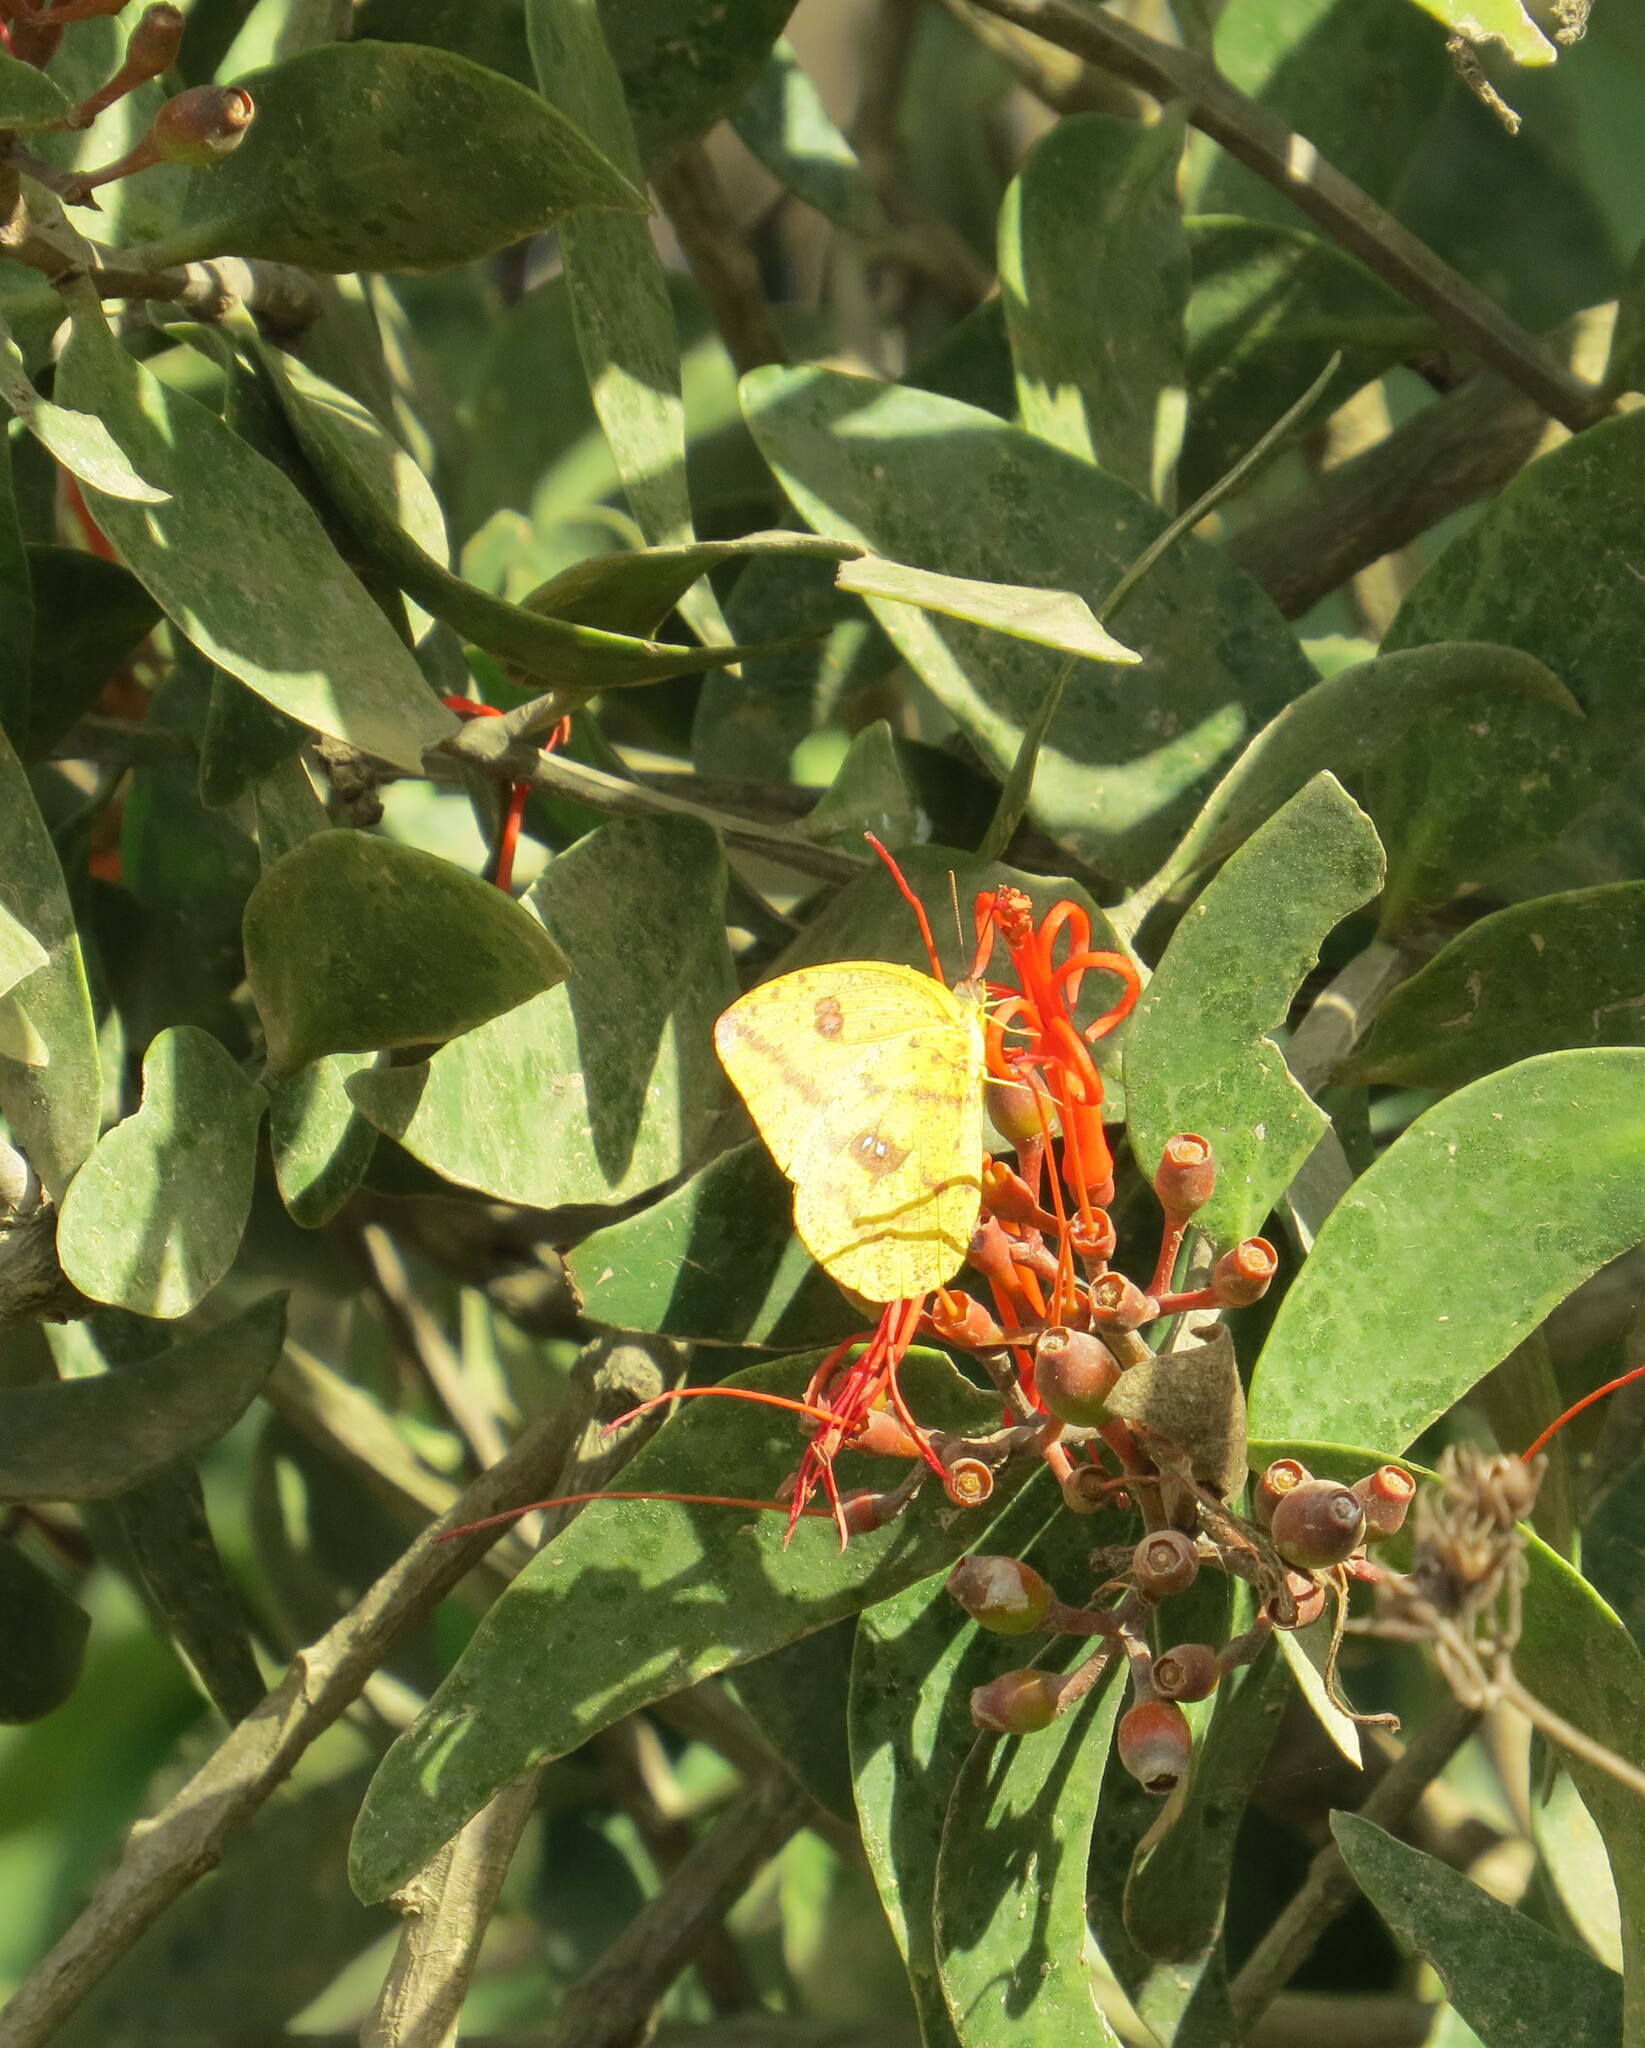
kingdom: Animalia
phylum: Arthropoda
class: Insecta
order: Lepidoptera
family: Pieridae
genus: Phoebis
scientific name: Phoebis agarithe
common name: Large orange sulphur
